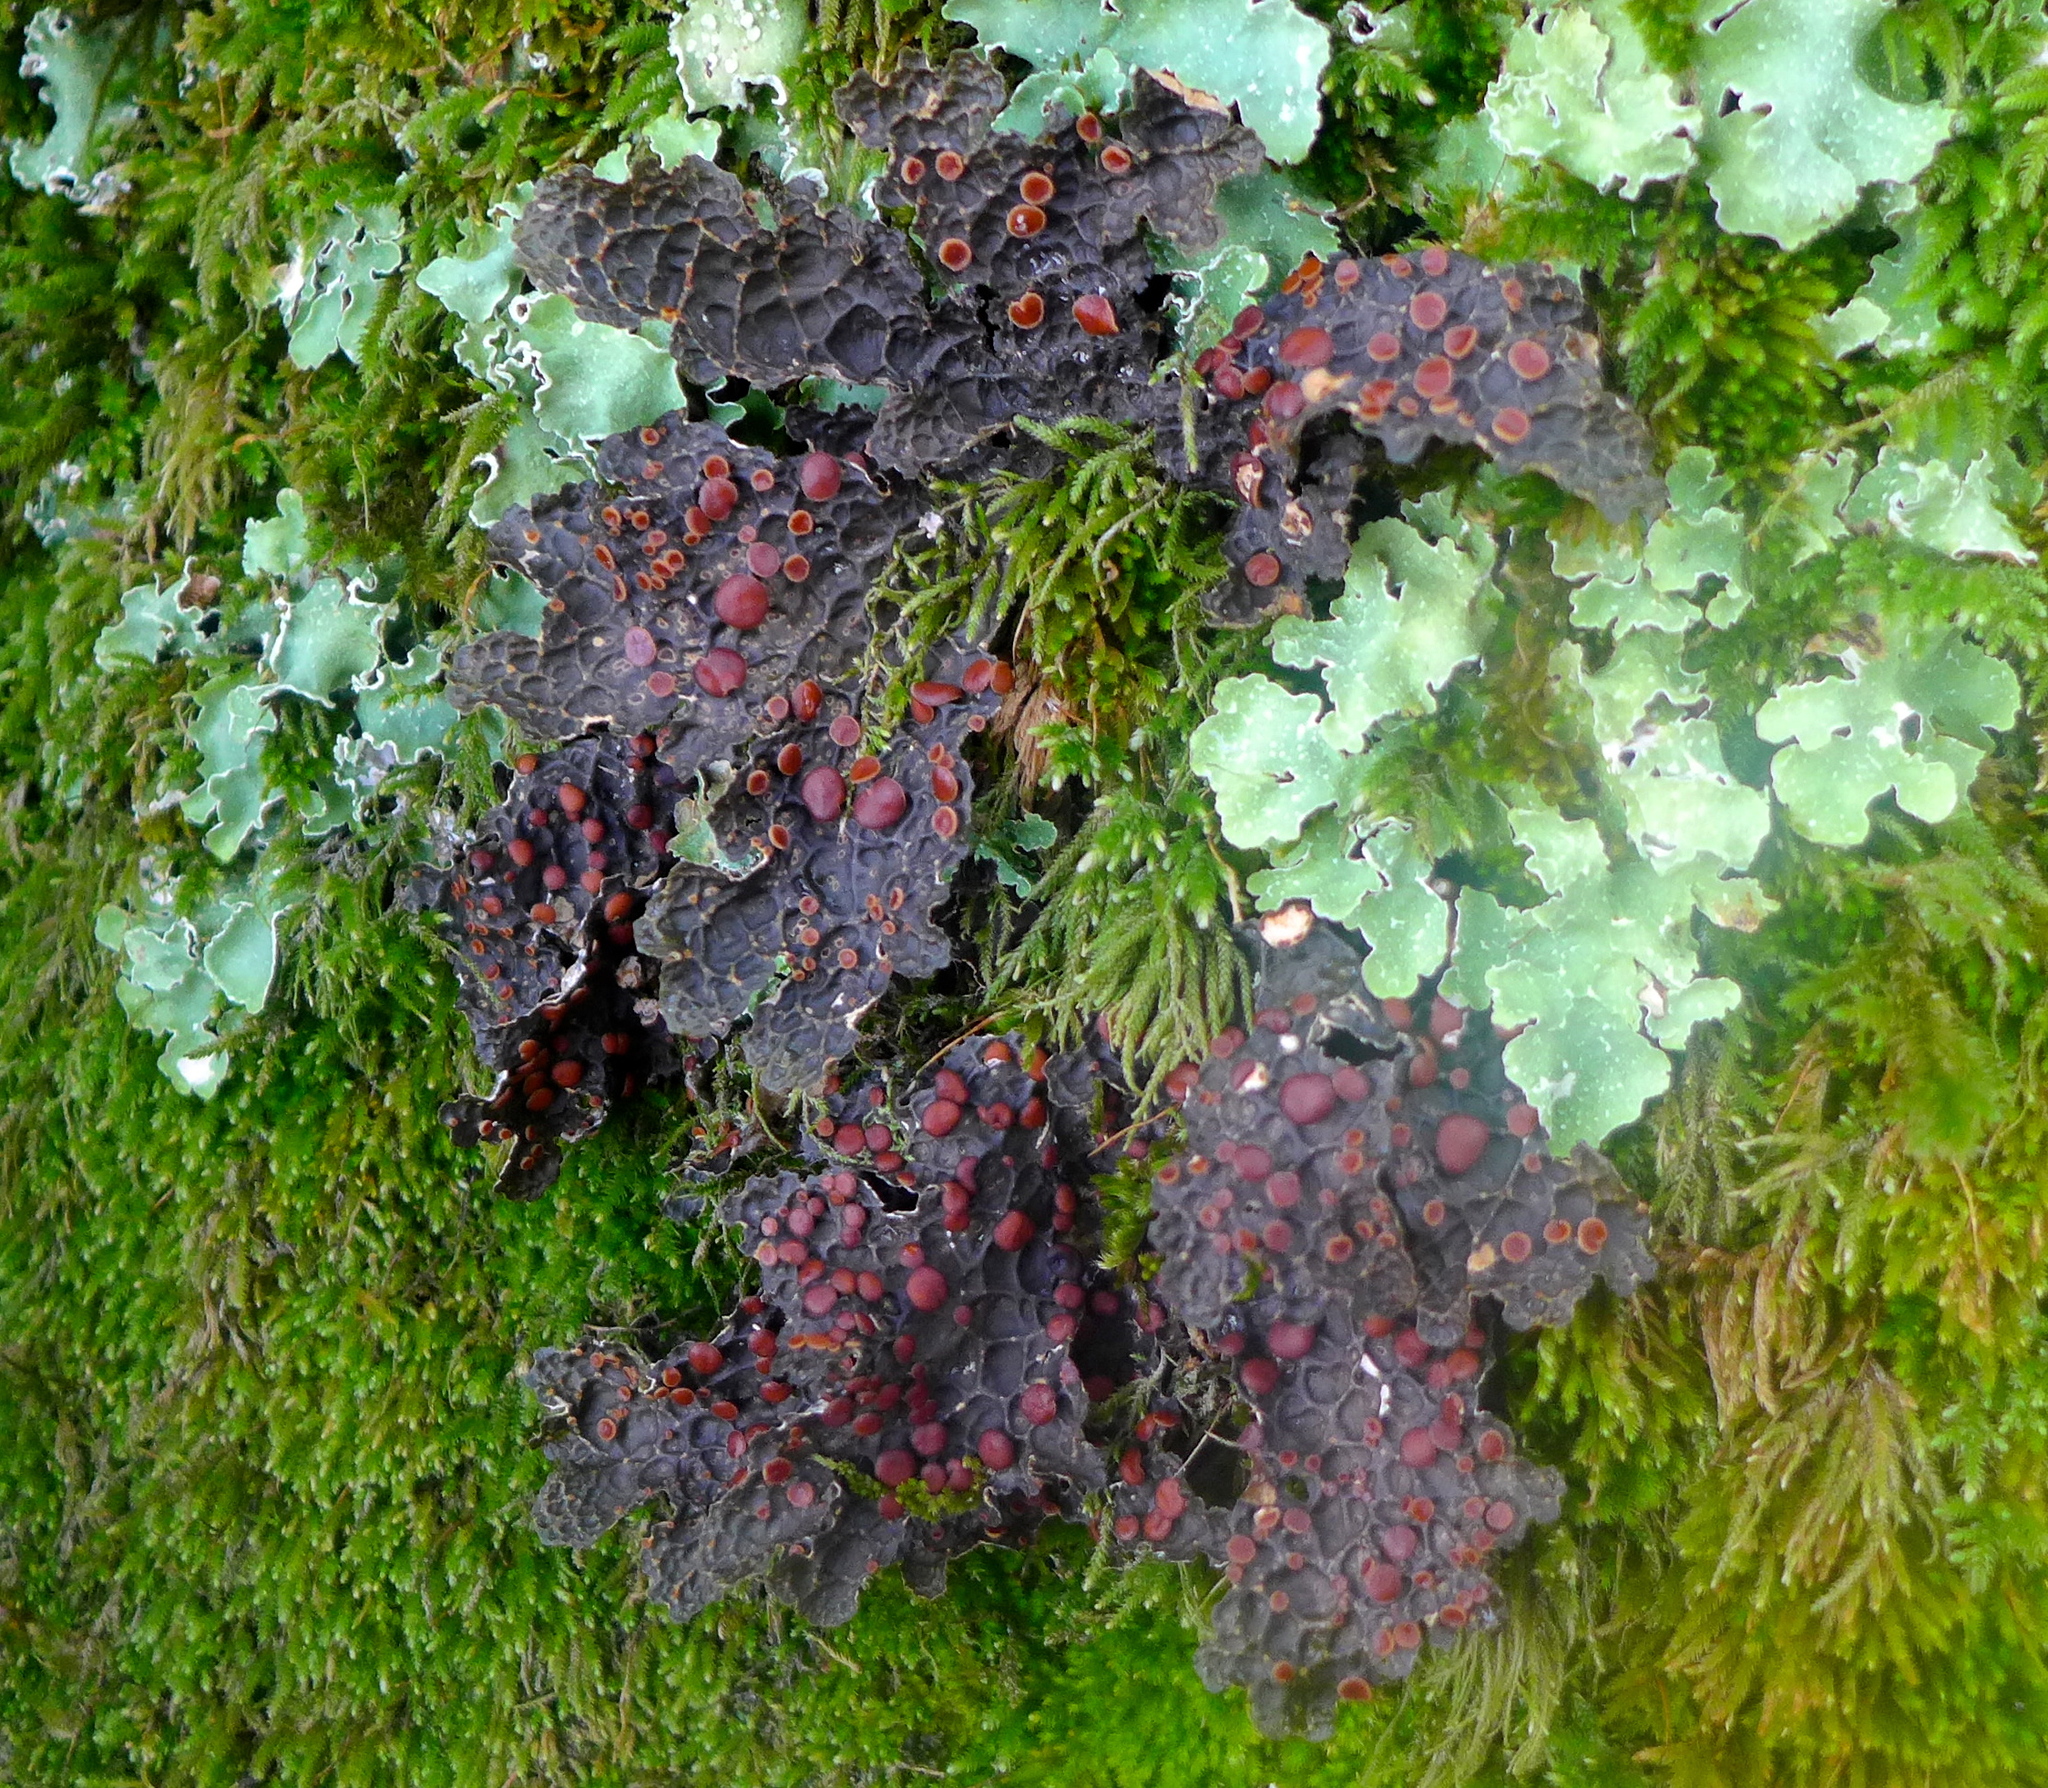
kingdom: Fungi
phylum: Ascomycota
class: Lecanoromycetes
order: Peltigerales
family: Lobariaceae
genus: Lobaria
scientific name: Lobaria anthraspis
